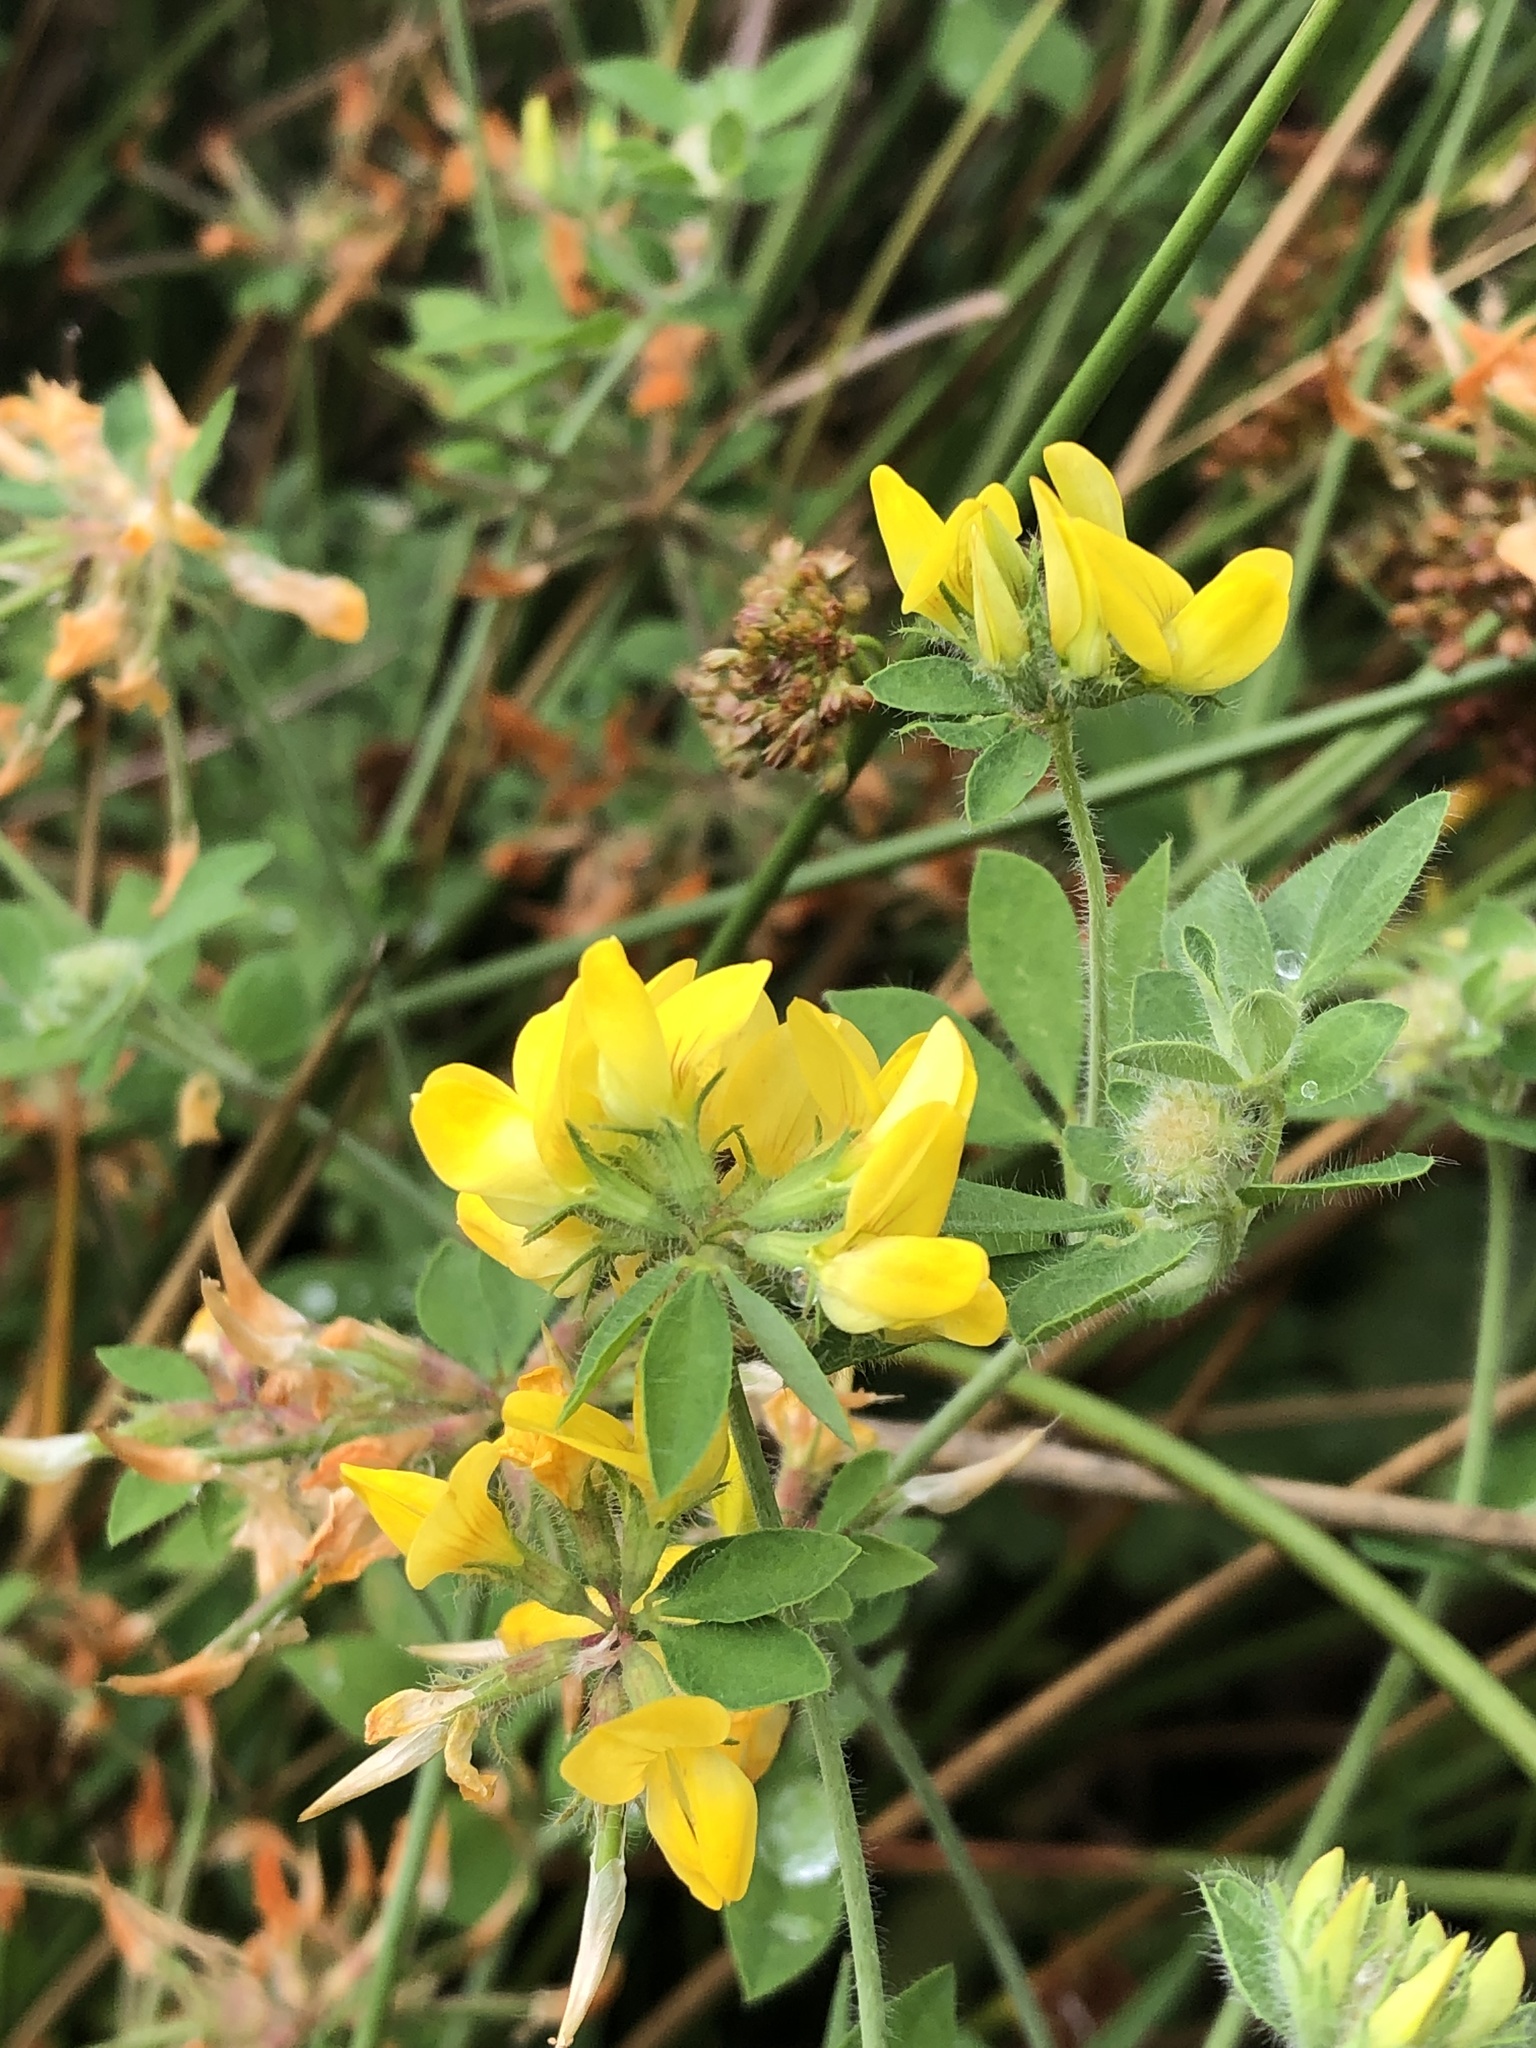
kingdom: Plantae
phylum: Tracheophyta
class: Magnoliopsida
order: Fabales
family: Fabaceae
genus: Lotus
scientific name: Lotus pedunculatus
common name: Greater birdsfoot-trefoil
